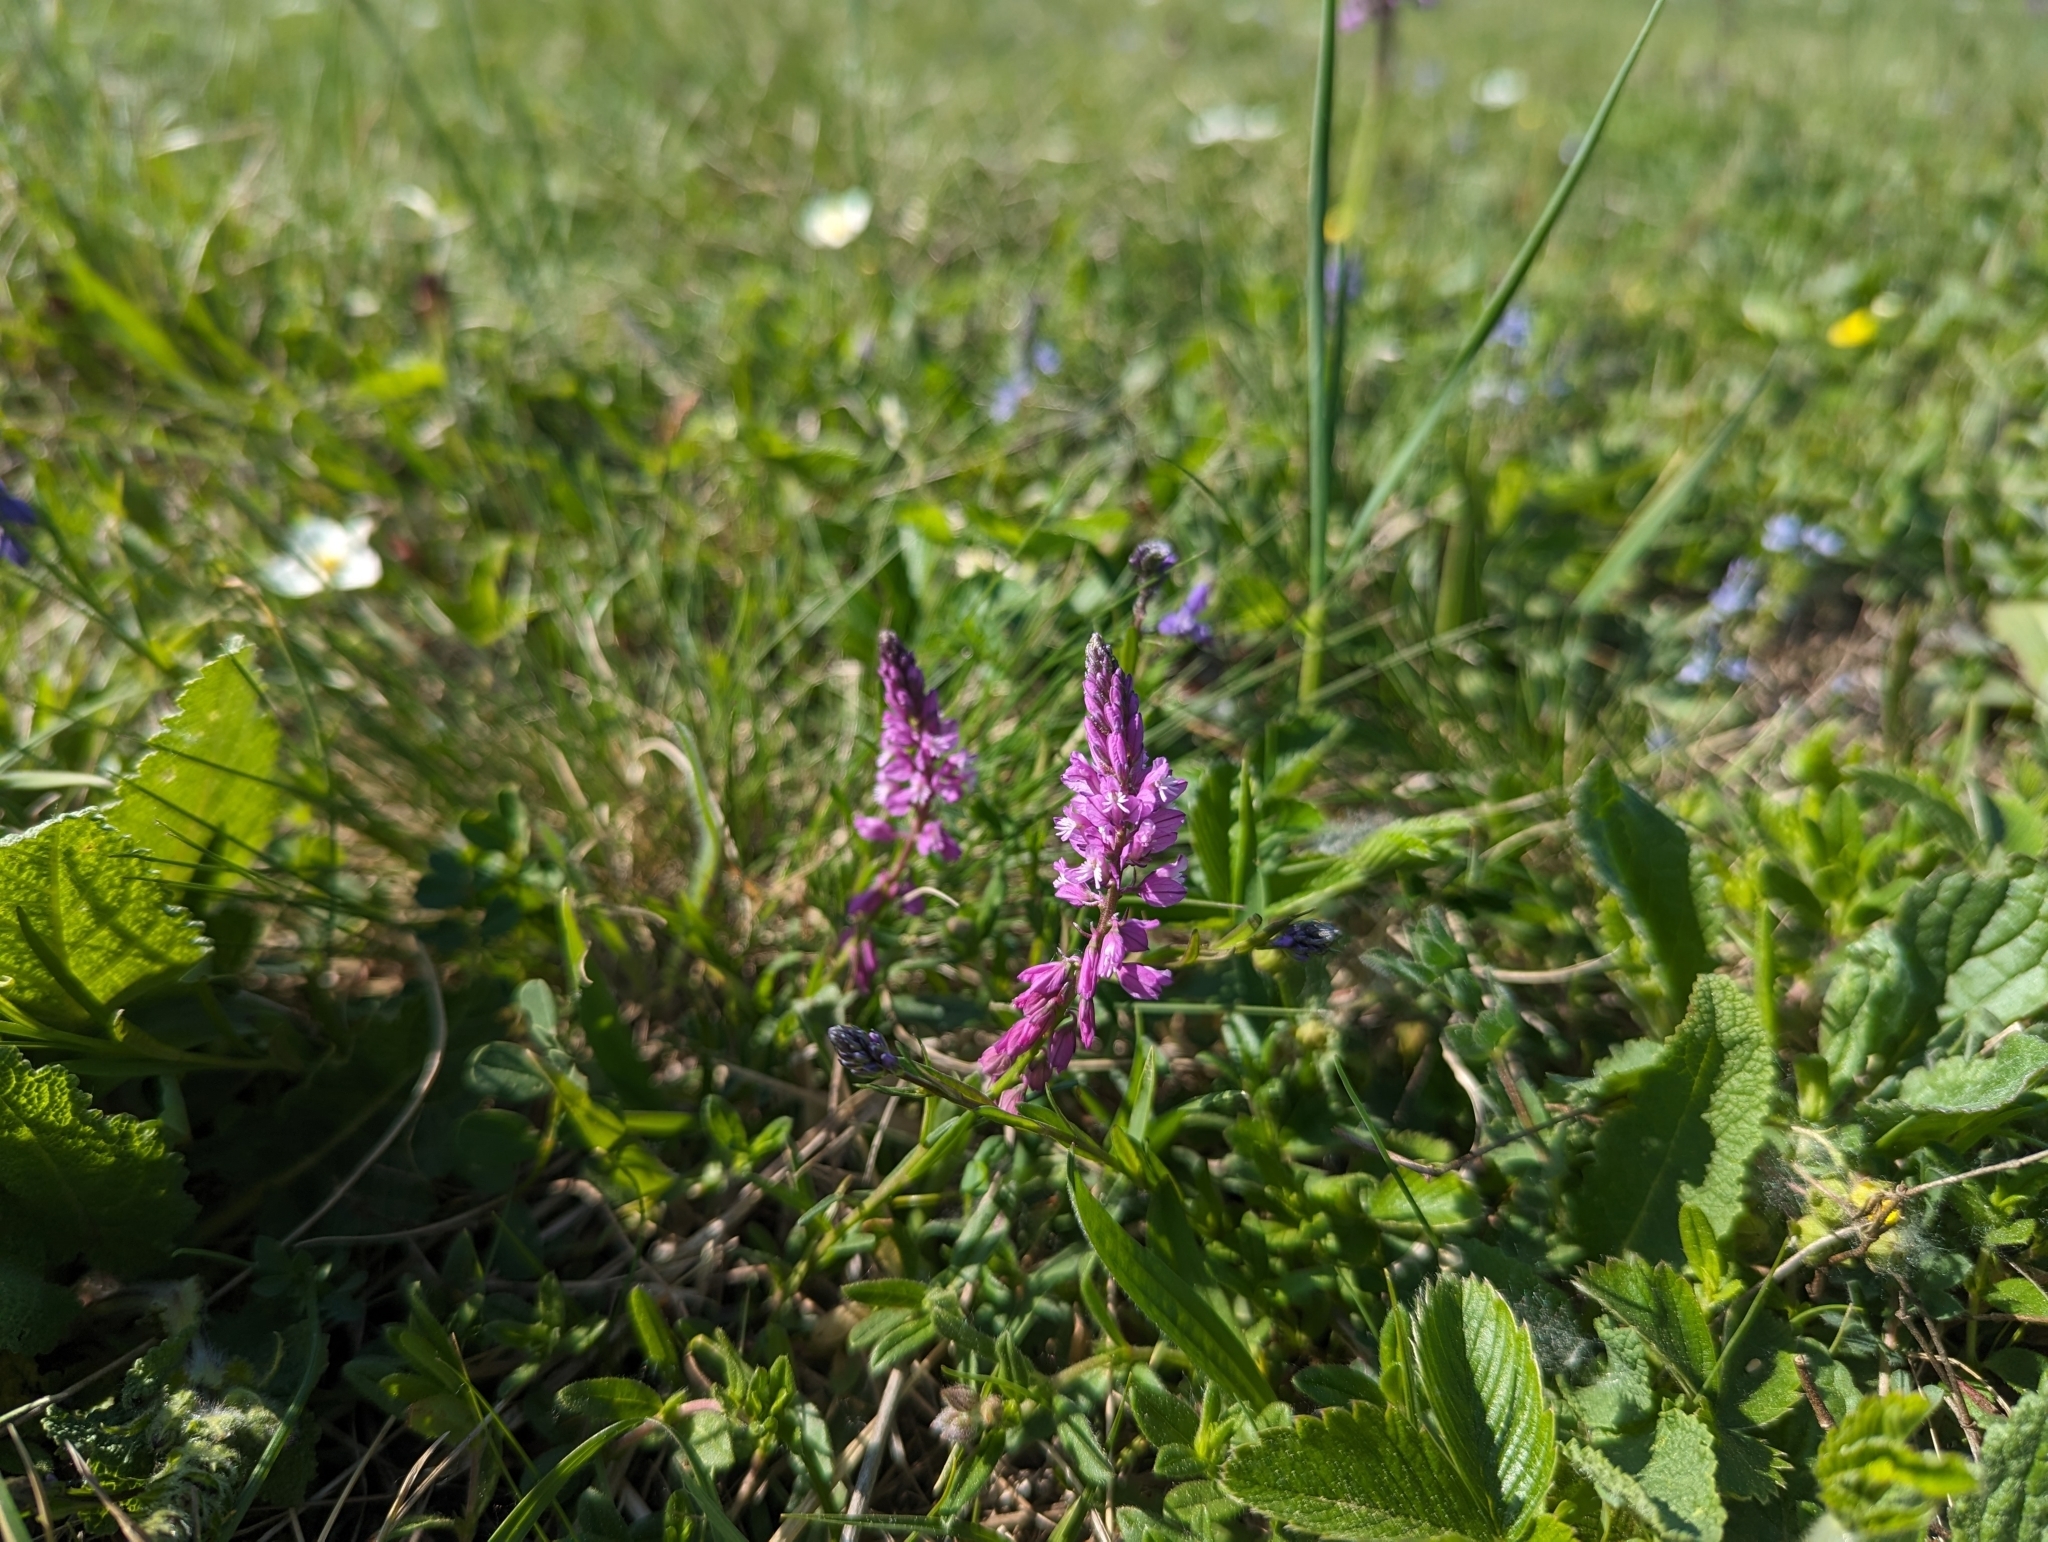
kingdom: Plantae
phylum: Tracheophyta
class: Magnoliopsida
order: Fabales
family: Polygalaceae
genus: Polygala
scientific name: Polygala major
